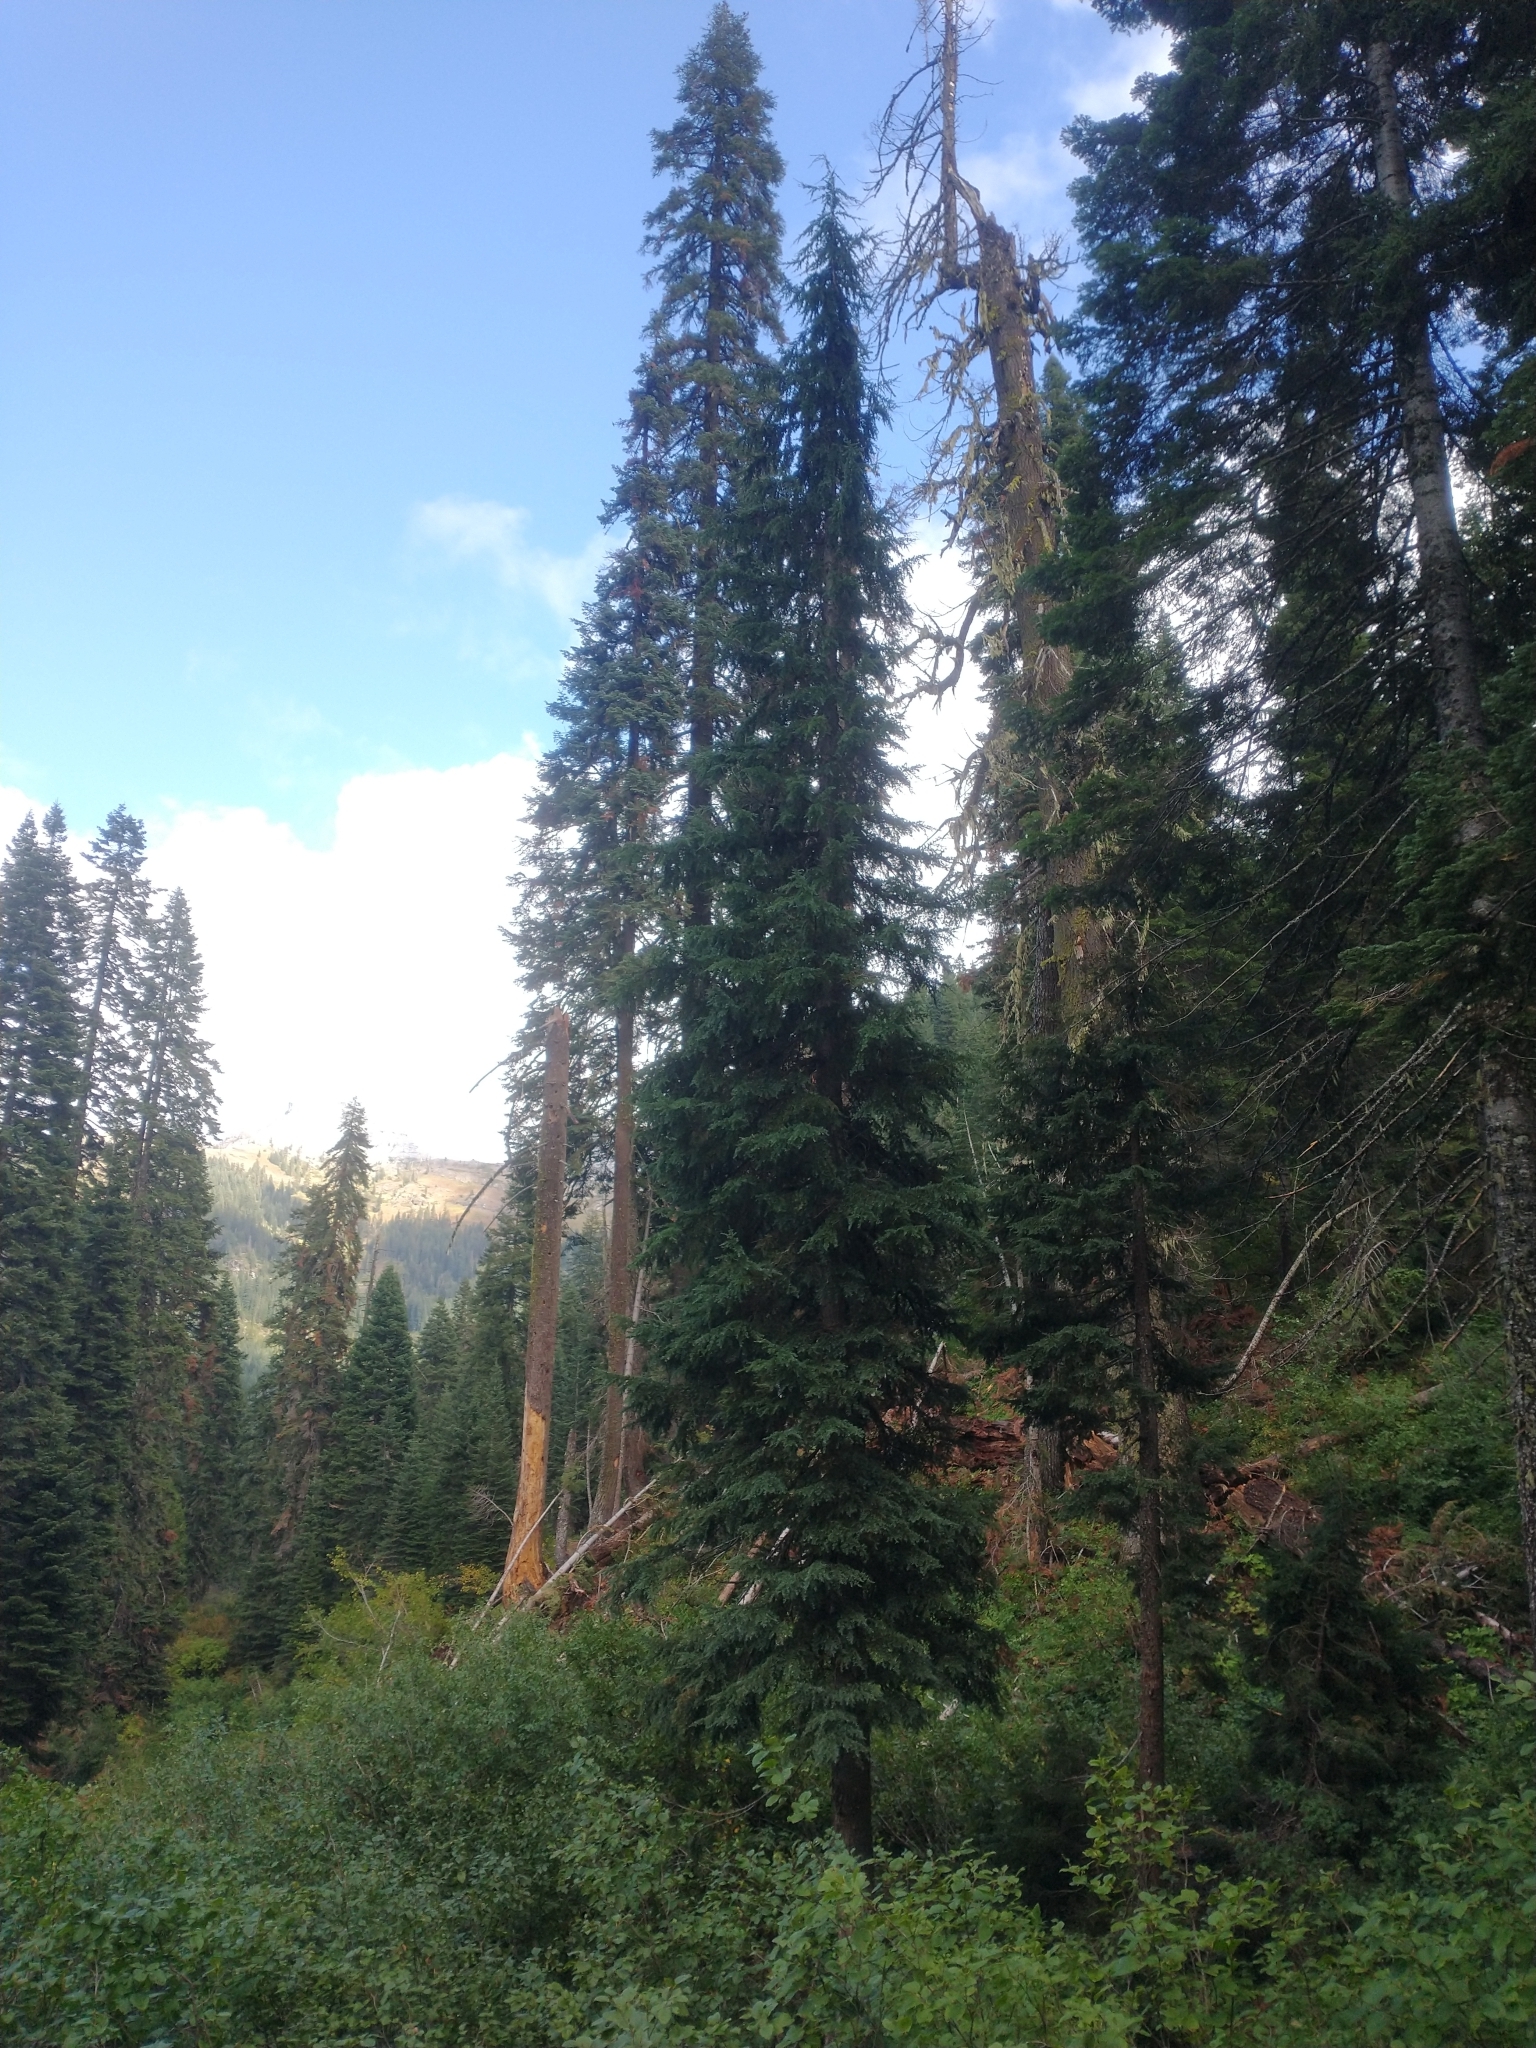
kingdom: Plantae
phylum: Tracheophyta
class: Pinopsida
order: Pinales
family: Pinaceae
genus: Tsuga
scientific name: Tsuga mertensiana
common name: Mountain hemlock
